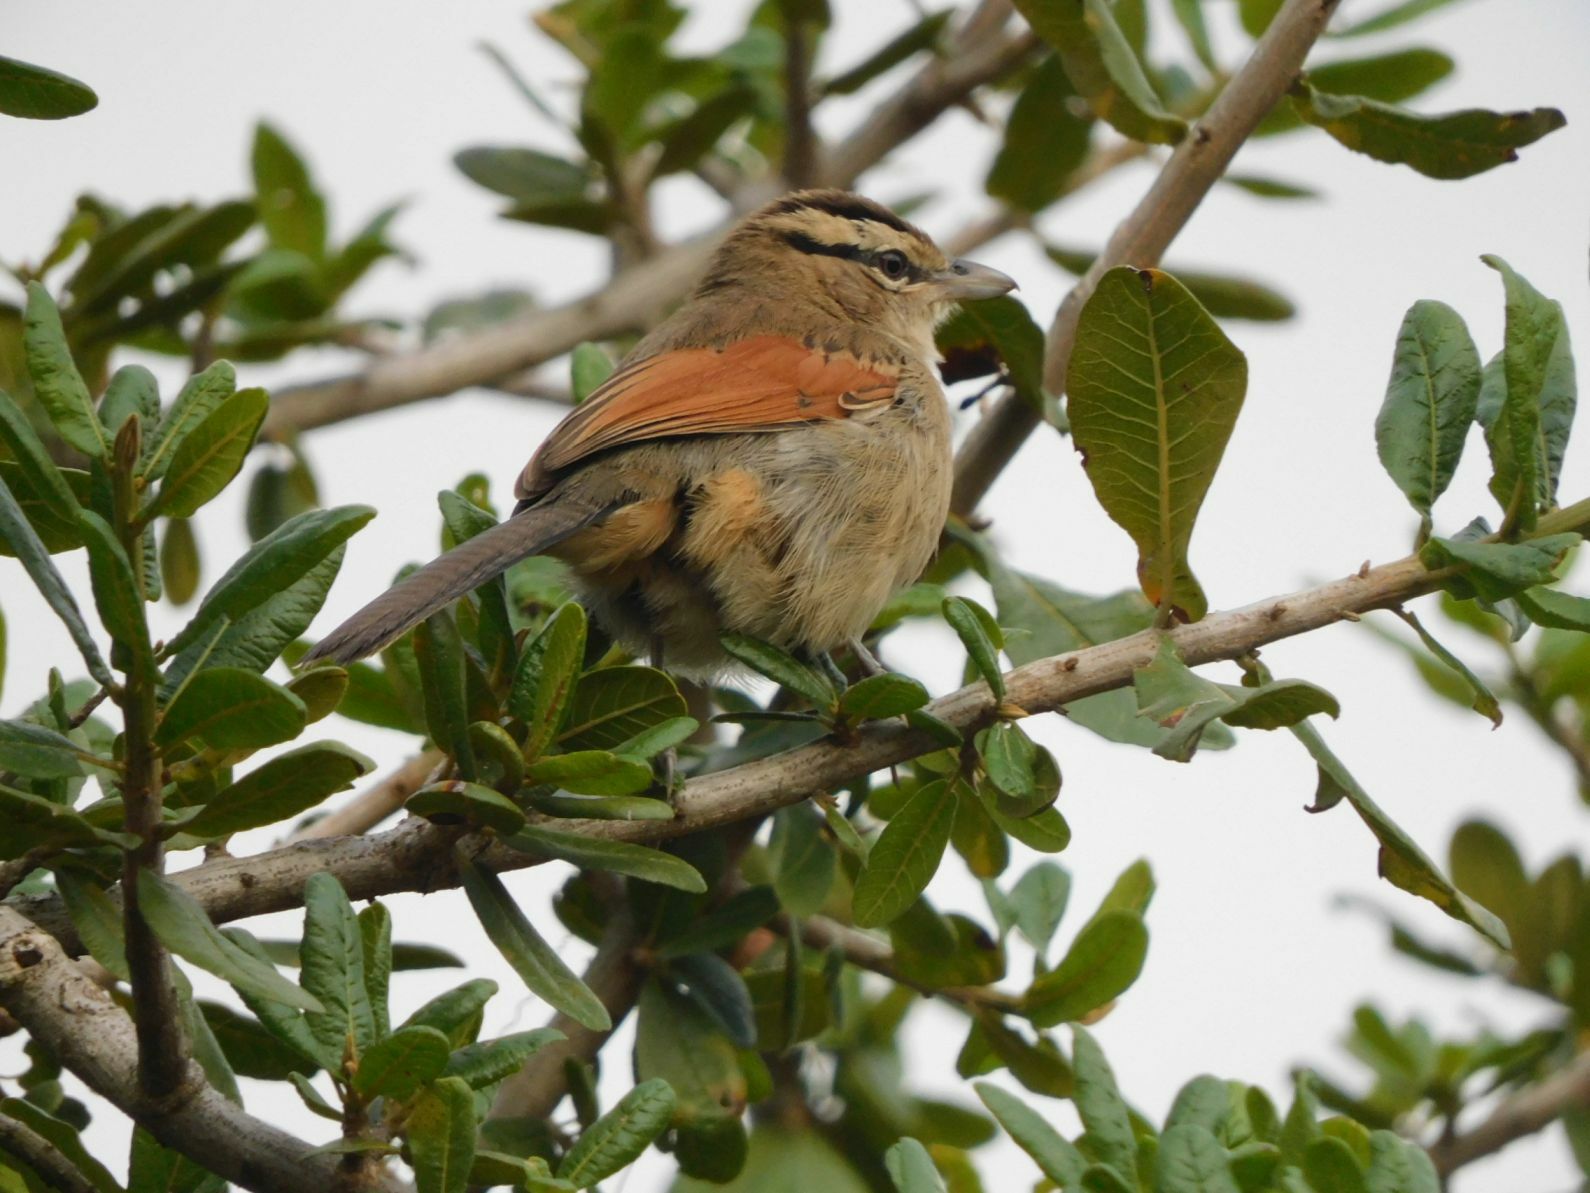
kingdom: Animalia
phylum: Chordata
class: Aves
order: Passeriformes
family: Malaconotidae
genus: Tchagra
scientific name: Tchagra australis
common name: Brown-crowned tchagra
